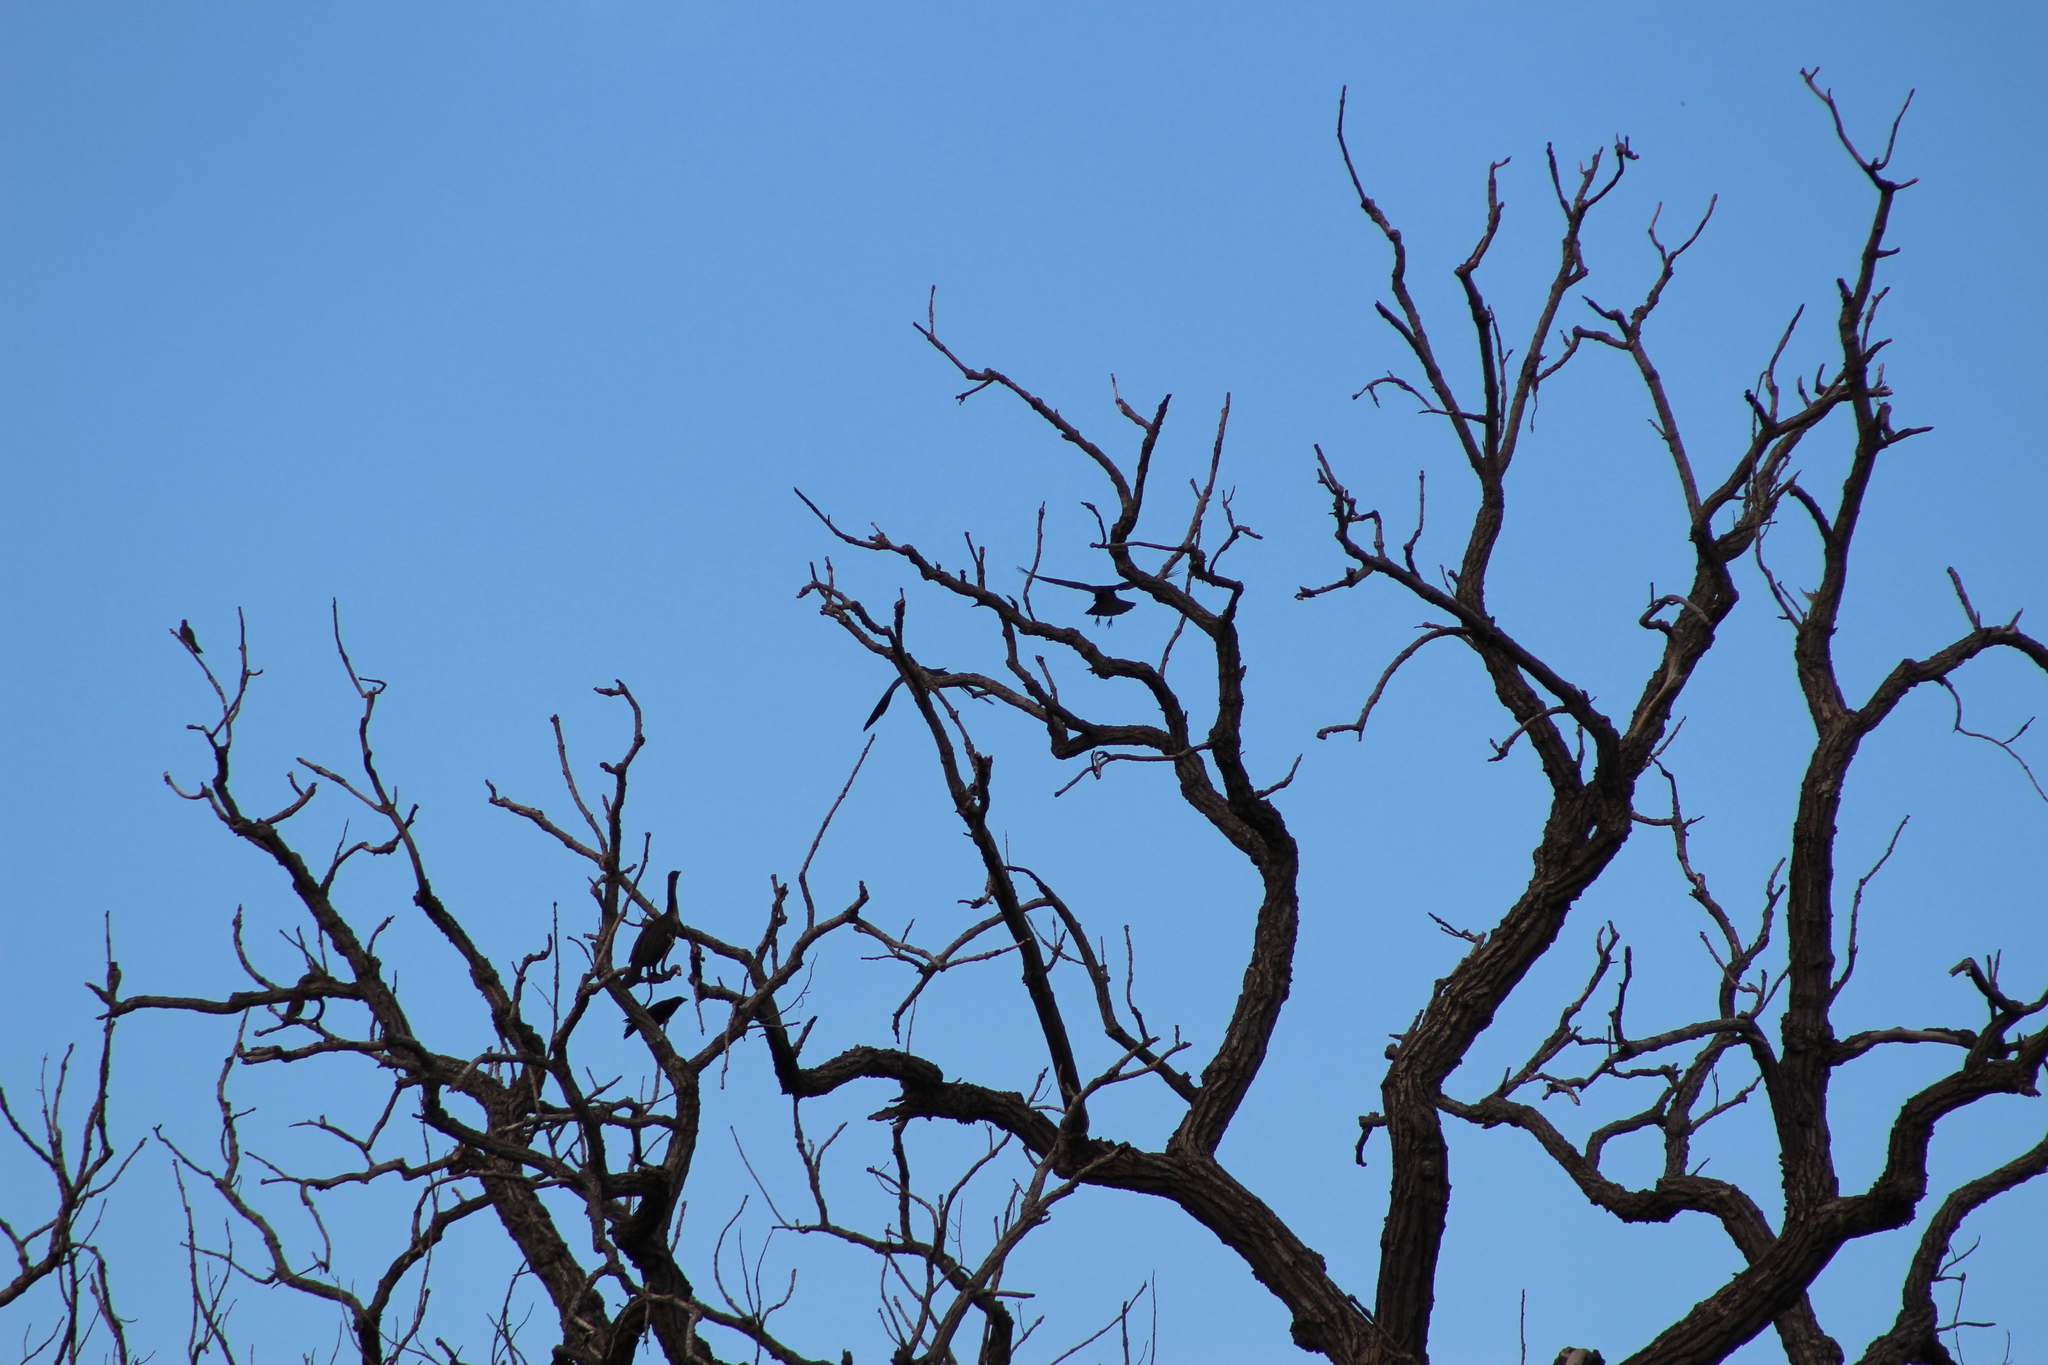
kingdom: Animalia
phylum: Chordata
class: Aves
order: Passeriformes
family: Corvidae
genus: Corvus
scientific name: Corvus brachyrhynchos
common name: American crow
